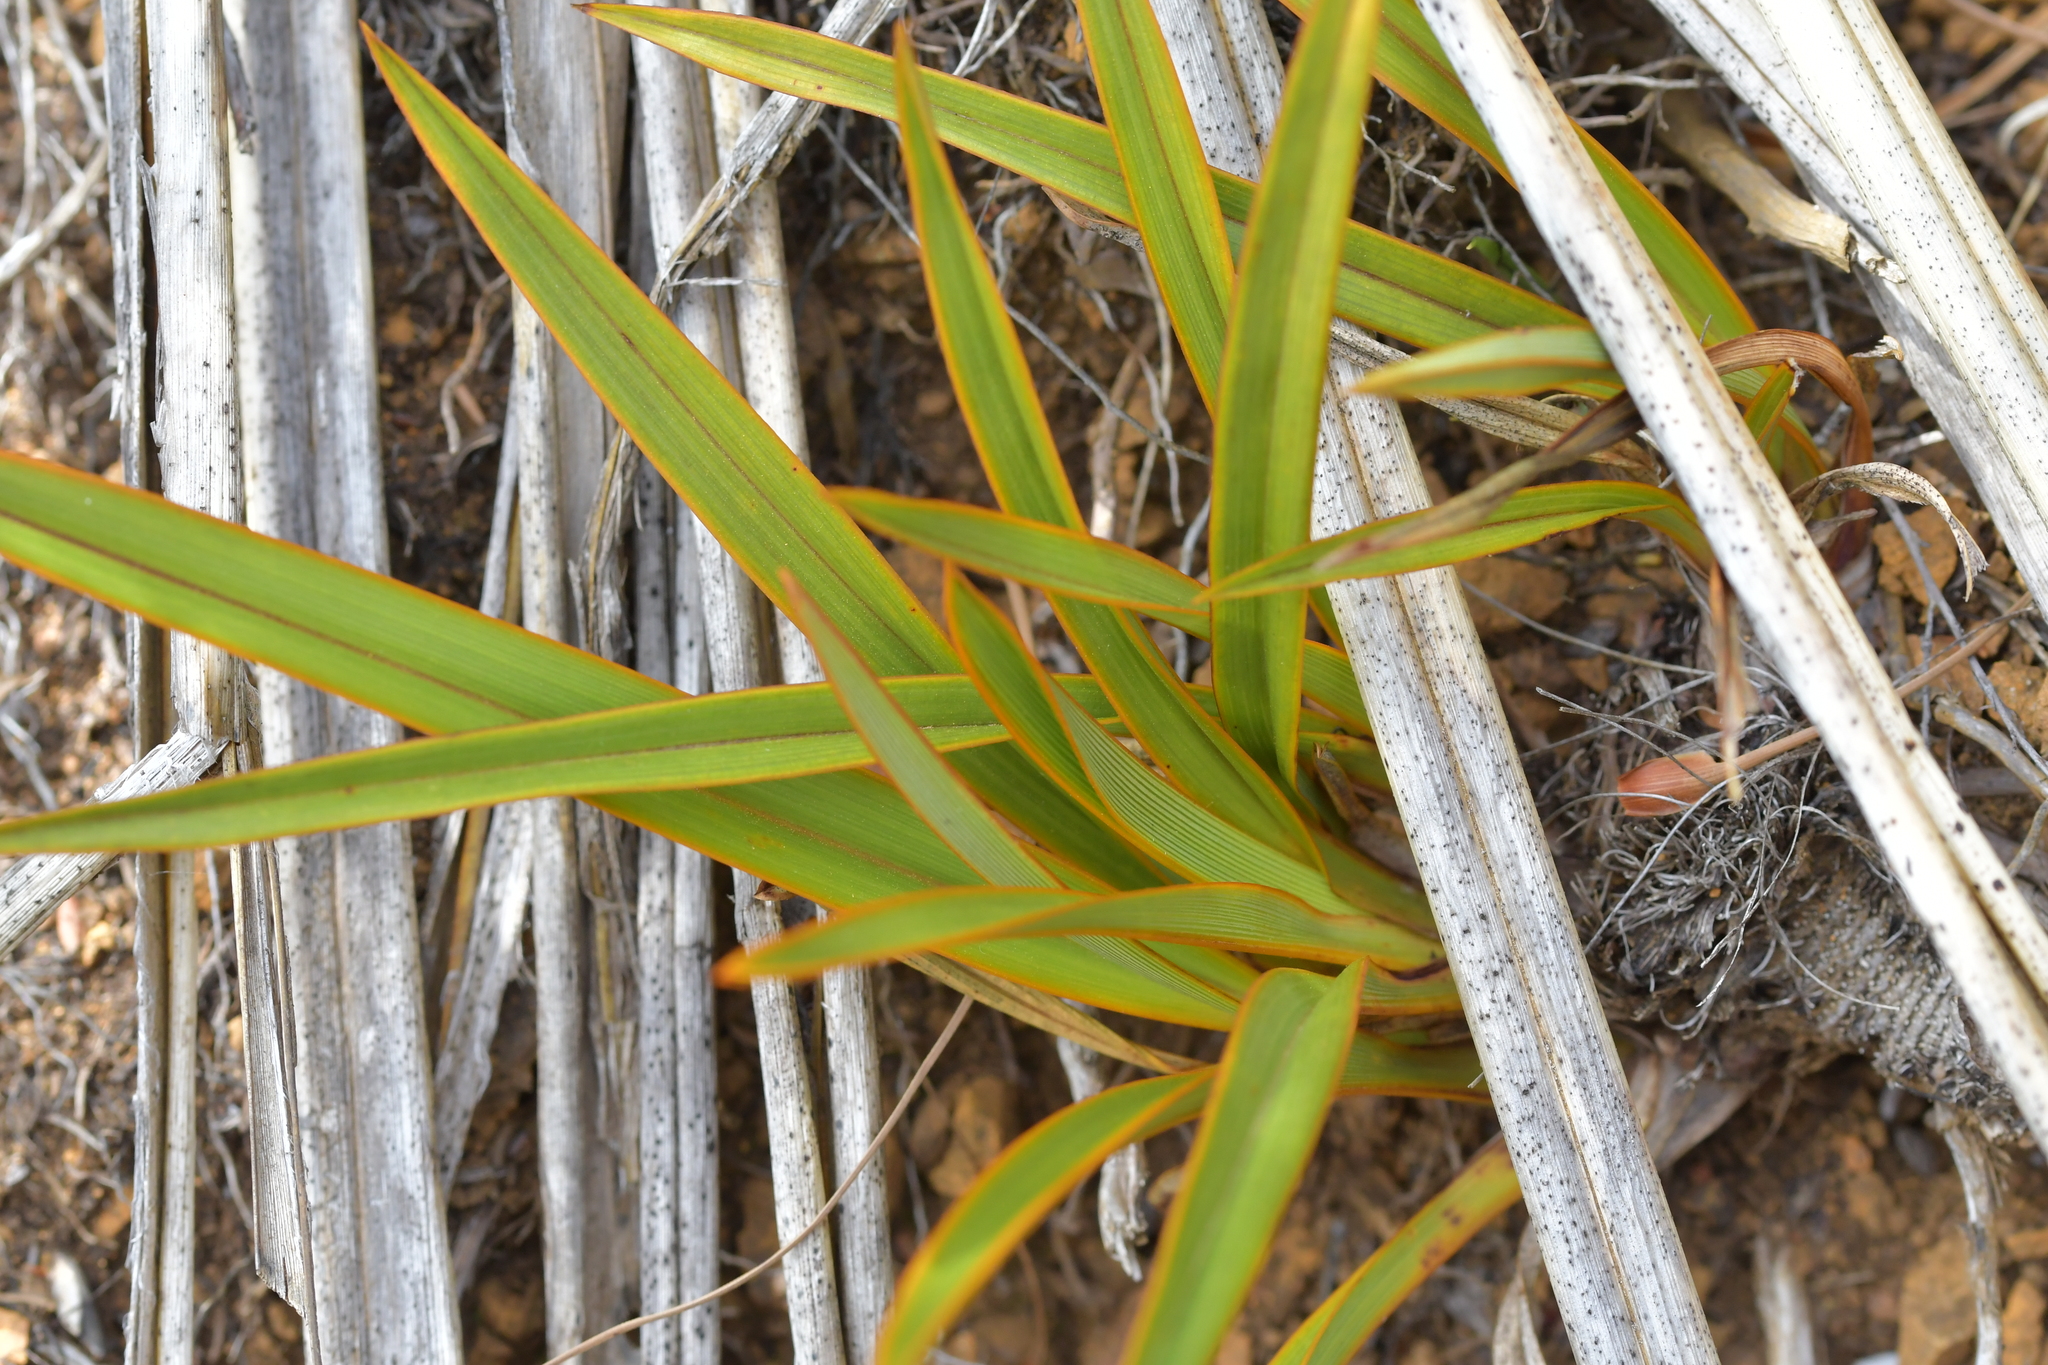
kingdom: Plantae
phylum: Tracheophyta
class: Liliopsida
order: Asparagales
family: Asphodelaceae
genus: Phormium
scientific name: Phormium colensoi
